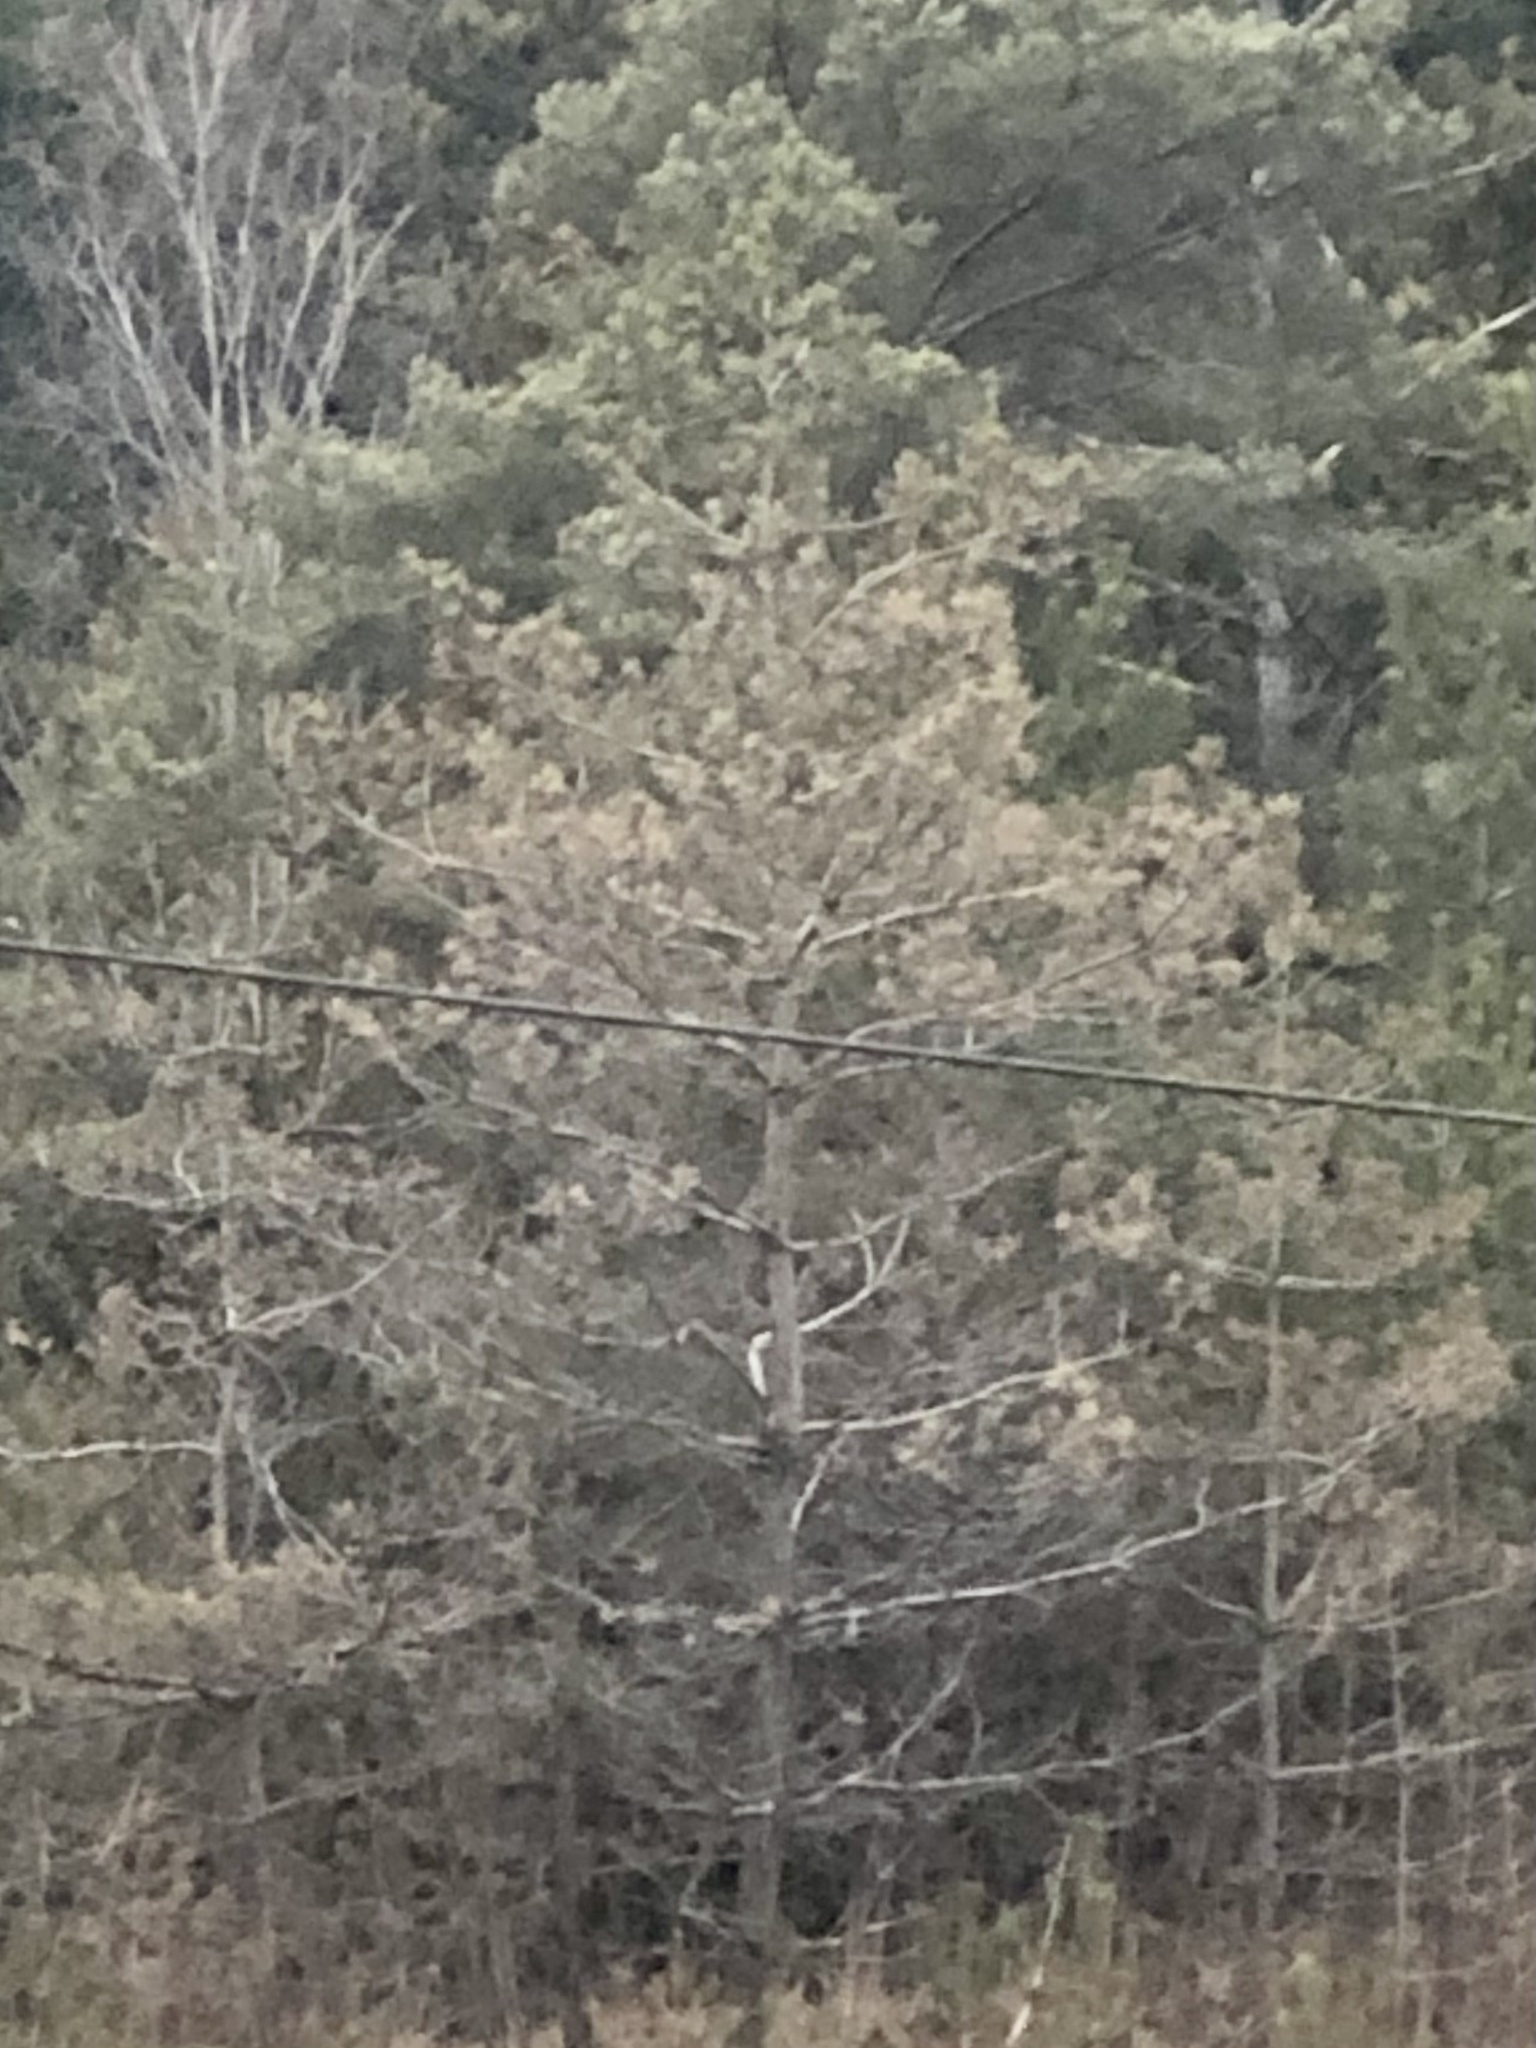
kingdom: Plantae
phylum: Tracheophyta
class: Pinopsida
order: Pinales
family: Pinaceae
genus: Pinus
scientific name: Pinus strobus
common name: Weymouth pine
